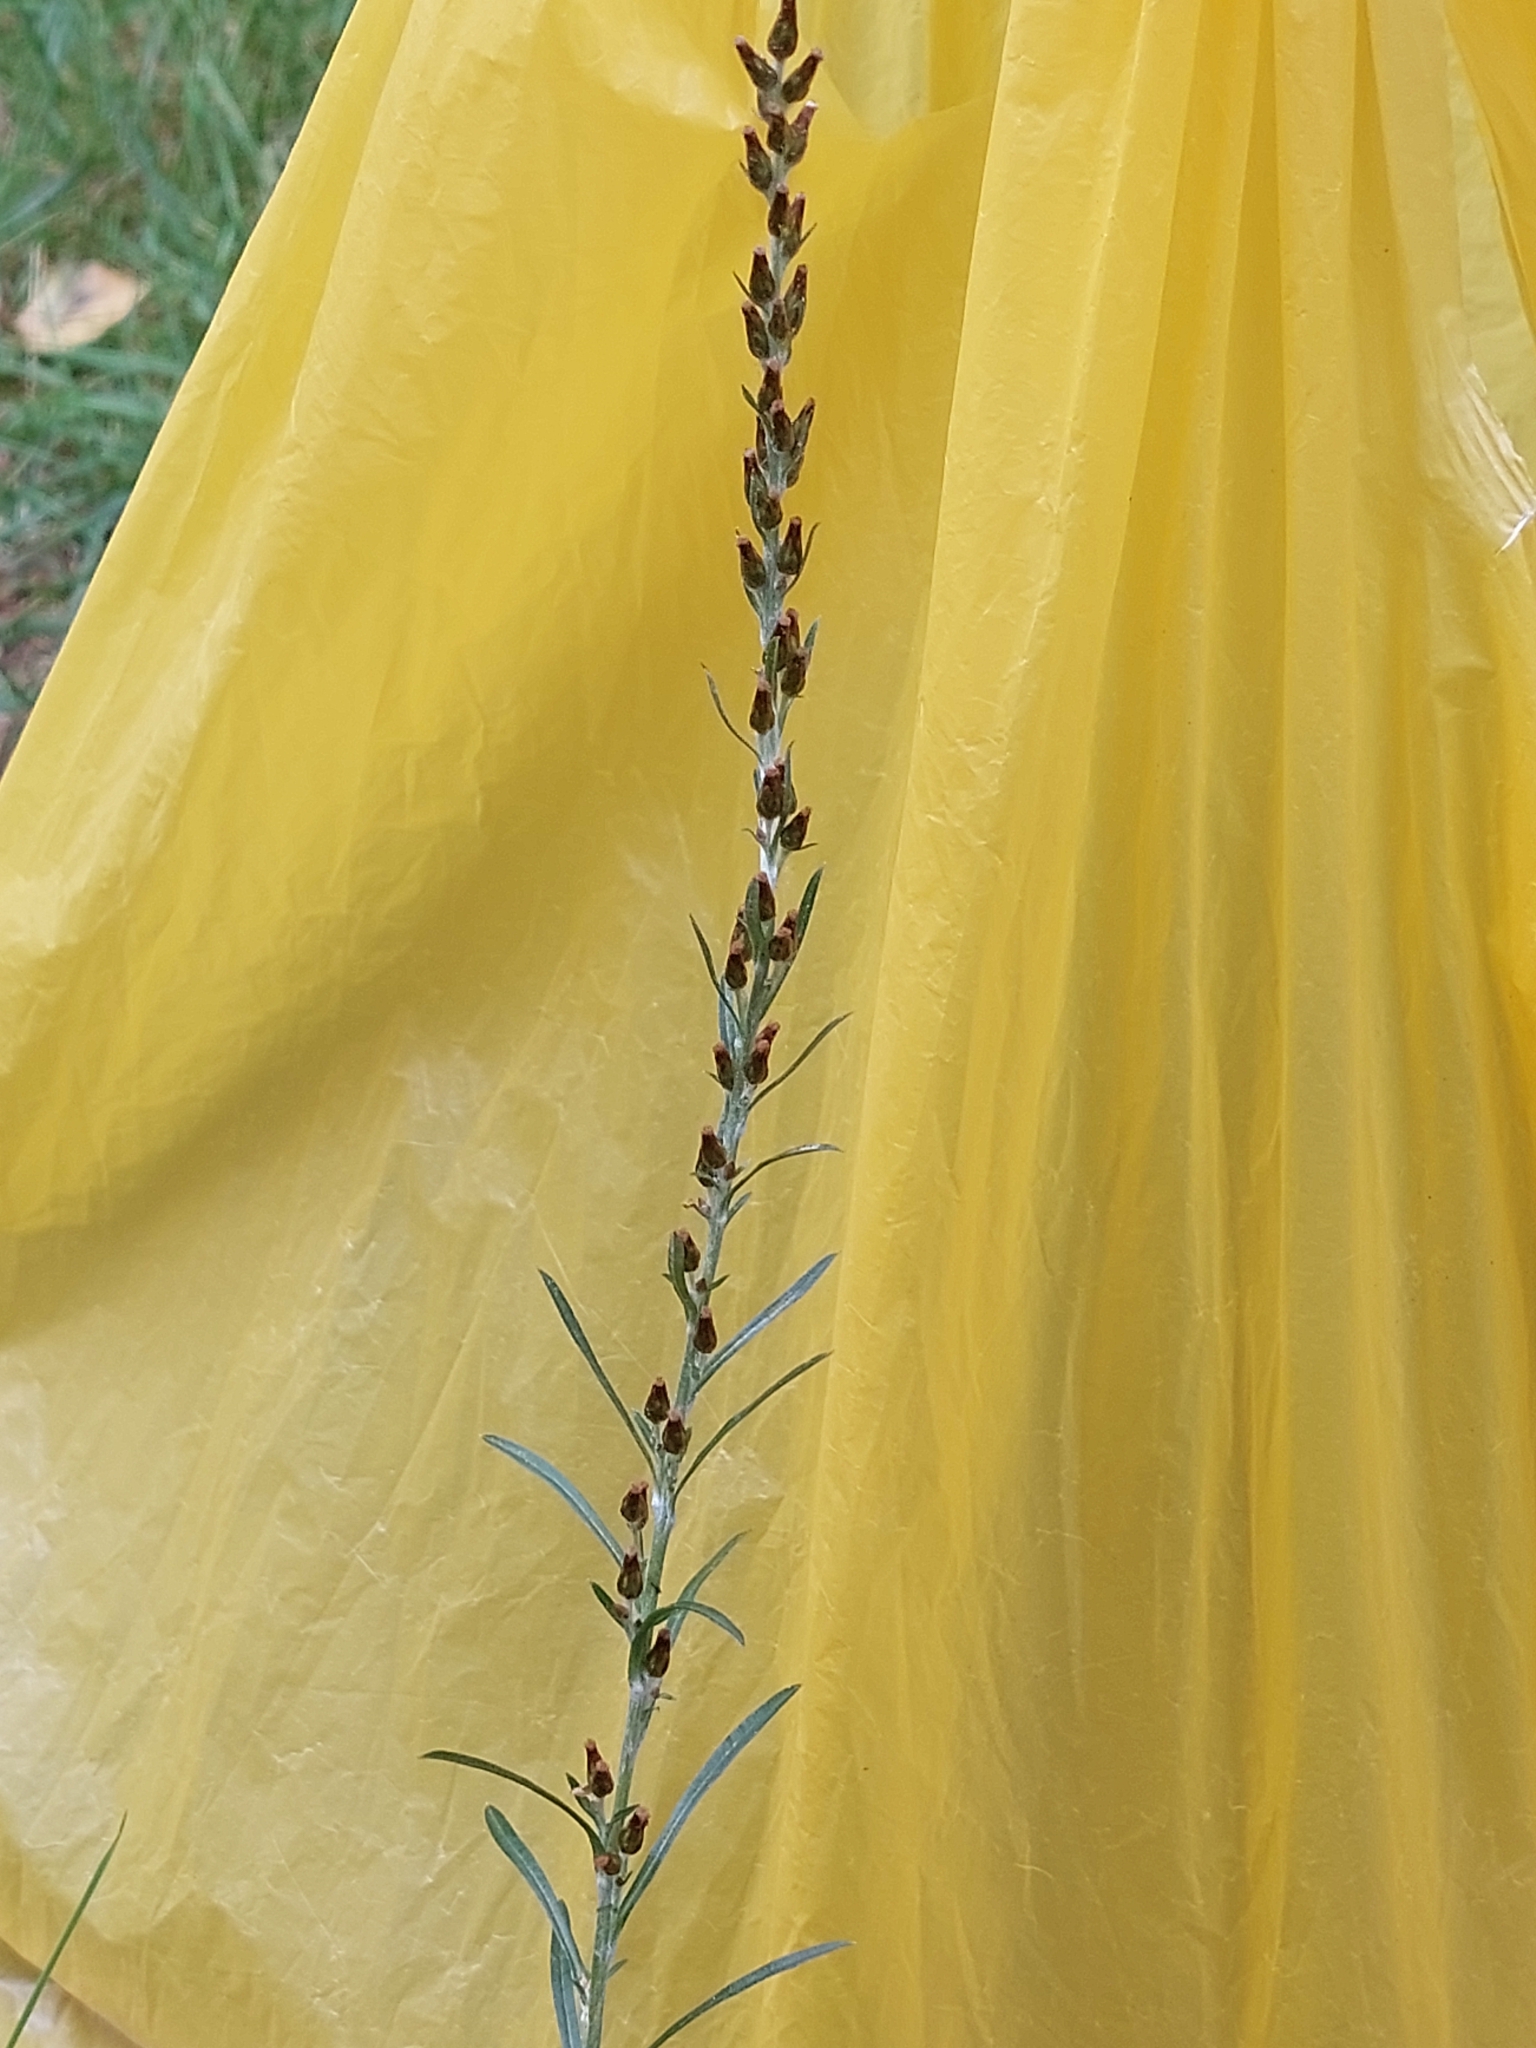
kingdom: Plantae
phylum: Tracheophyta
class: Magnoliopsida
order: Asterales
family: Asteraceae
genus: Omalotheca
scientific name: Omalotheca sylvatica
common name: Heath cudweed
